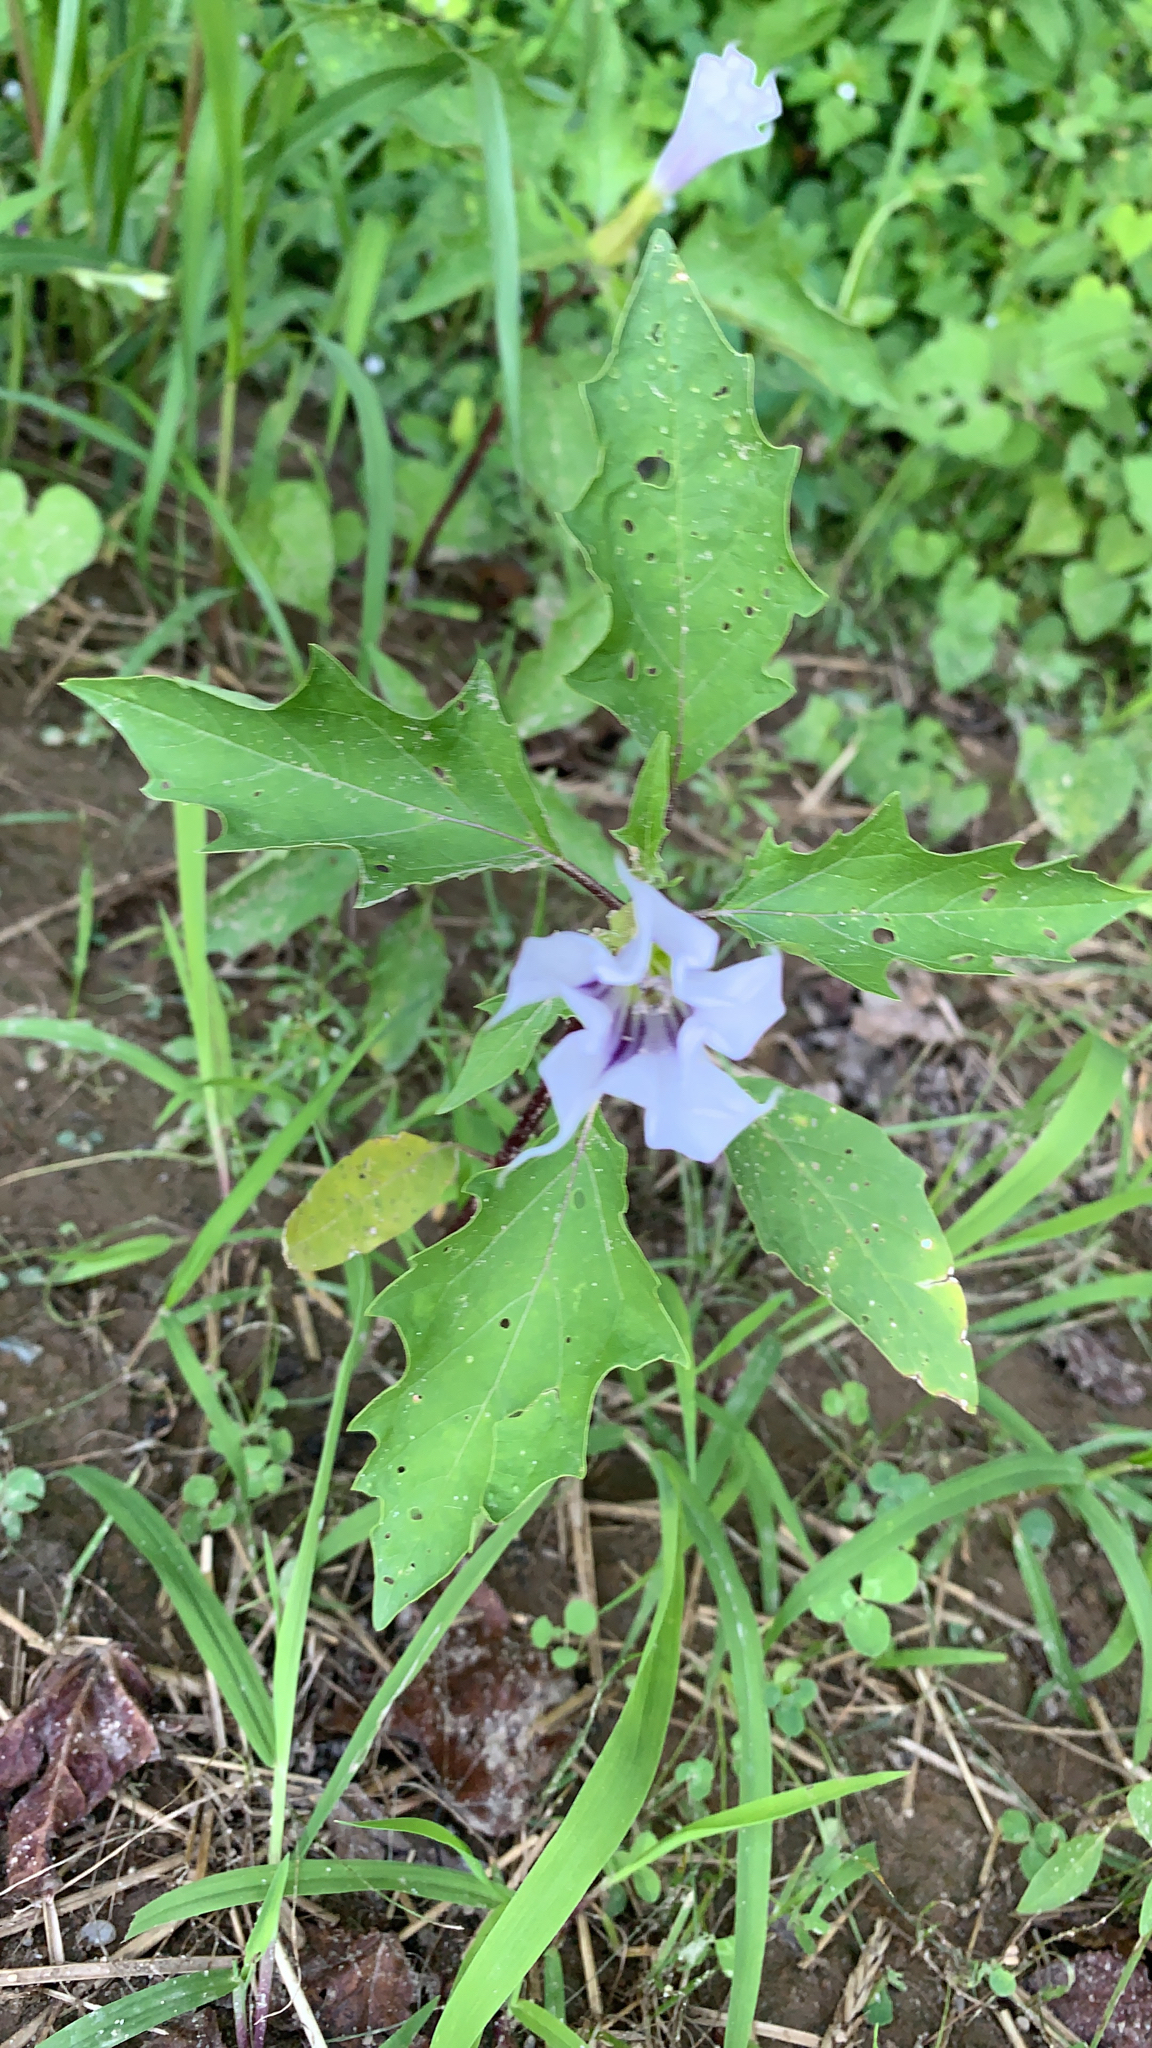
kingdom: Plantae
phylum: Tracheophyta
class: Magnoliopsida
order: Solanales
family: Solanaceae
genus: Datura
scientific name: Datura stramonium
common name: Thorn-apple
